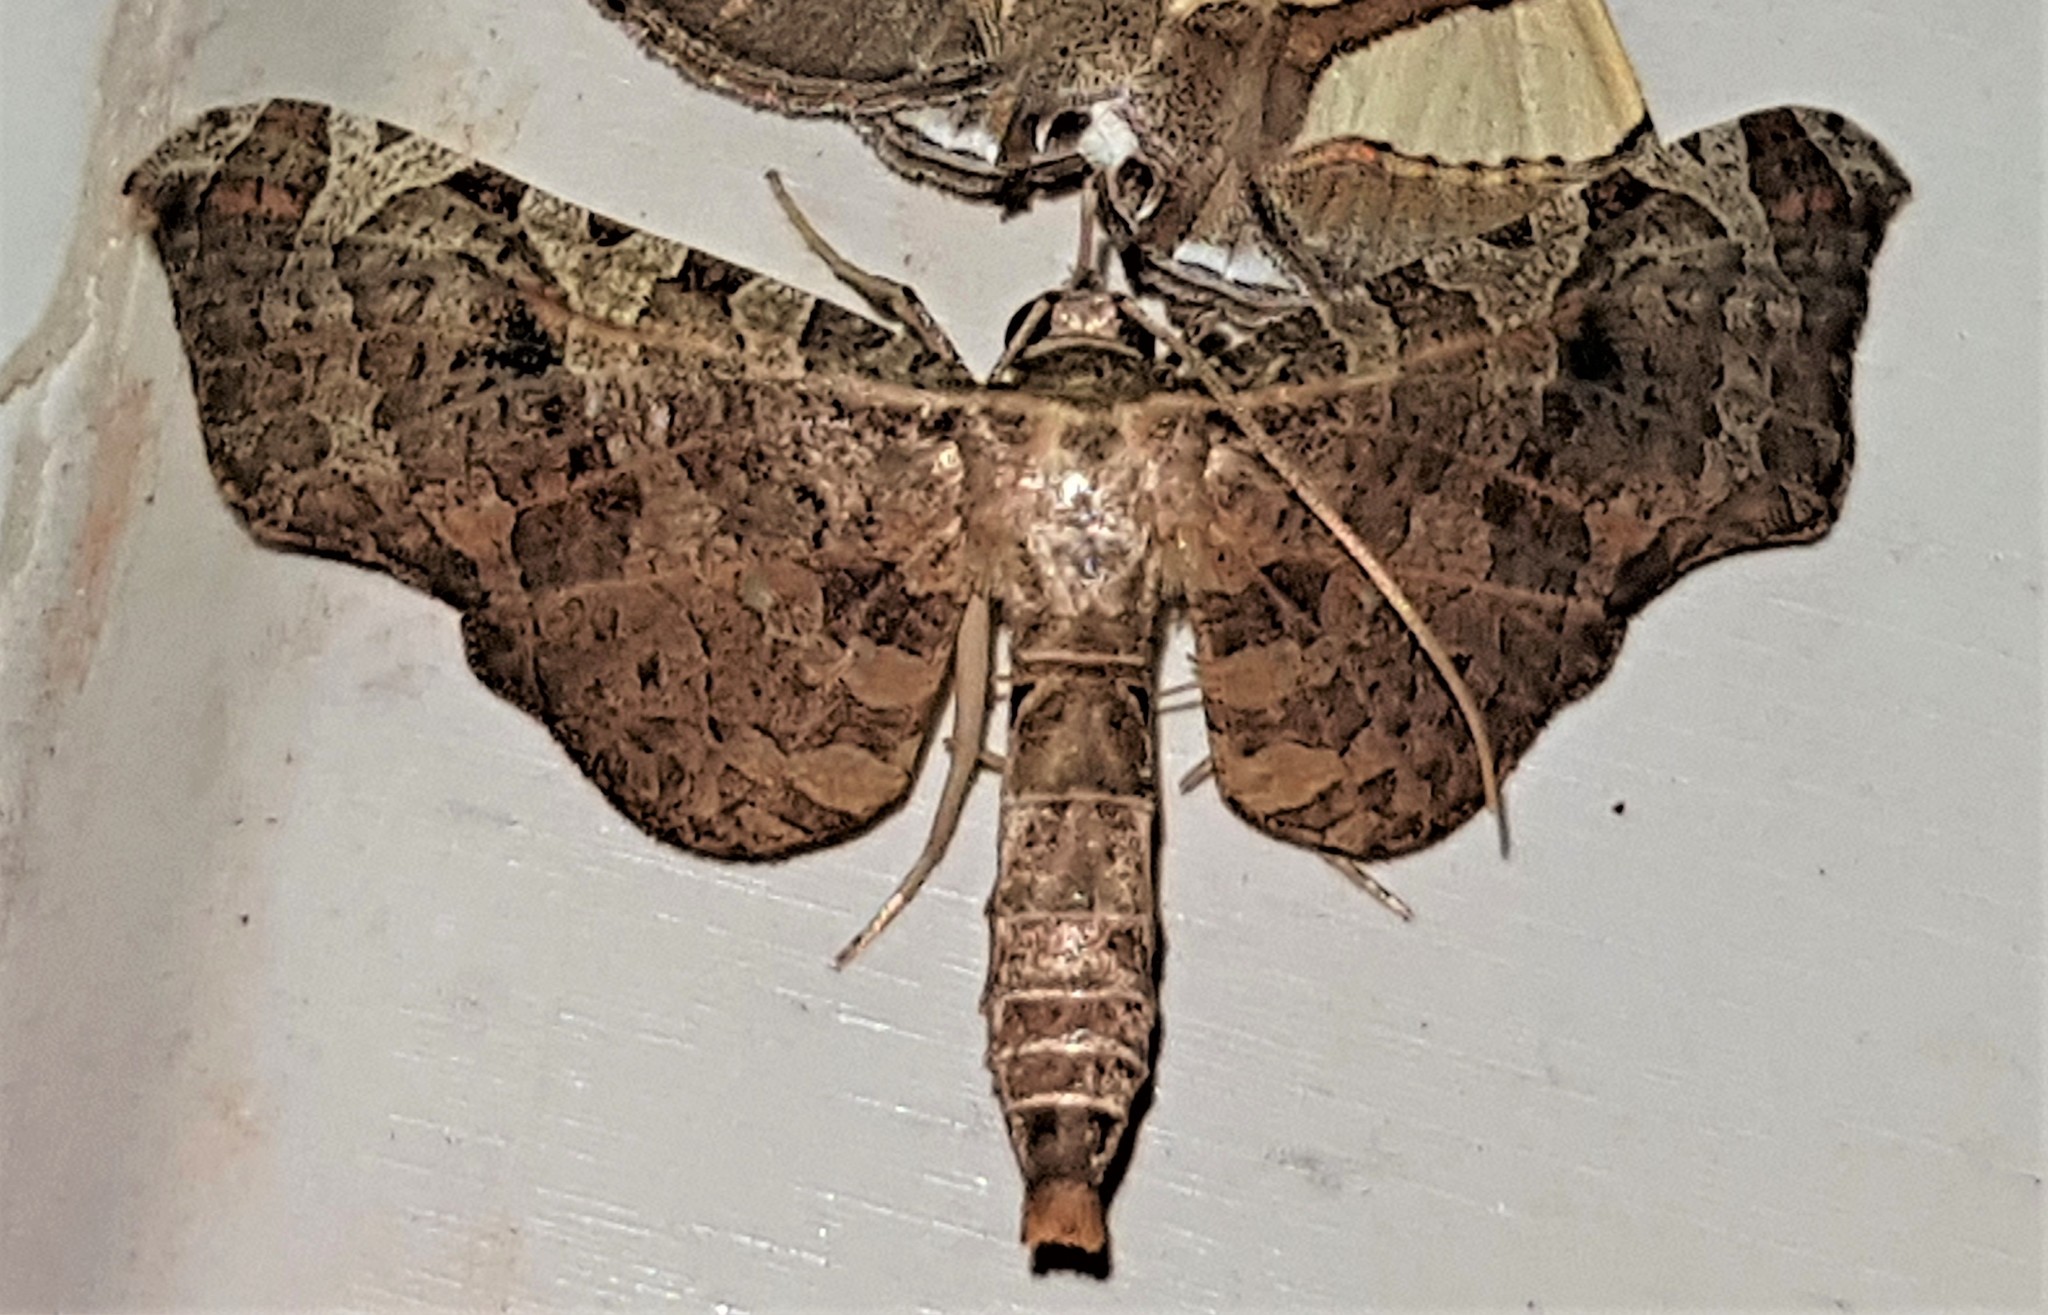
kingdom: Animalia
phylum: Arthropoda
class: Insecta
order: Lepidoptera
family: Thyrididae
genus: Rhodoneura
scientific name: Rhodoneura rhomboidea
